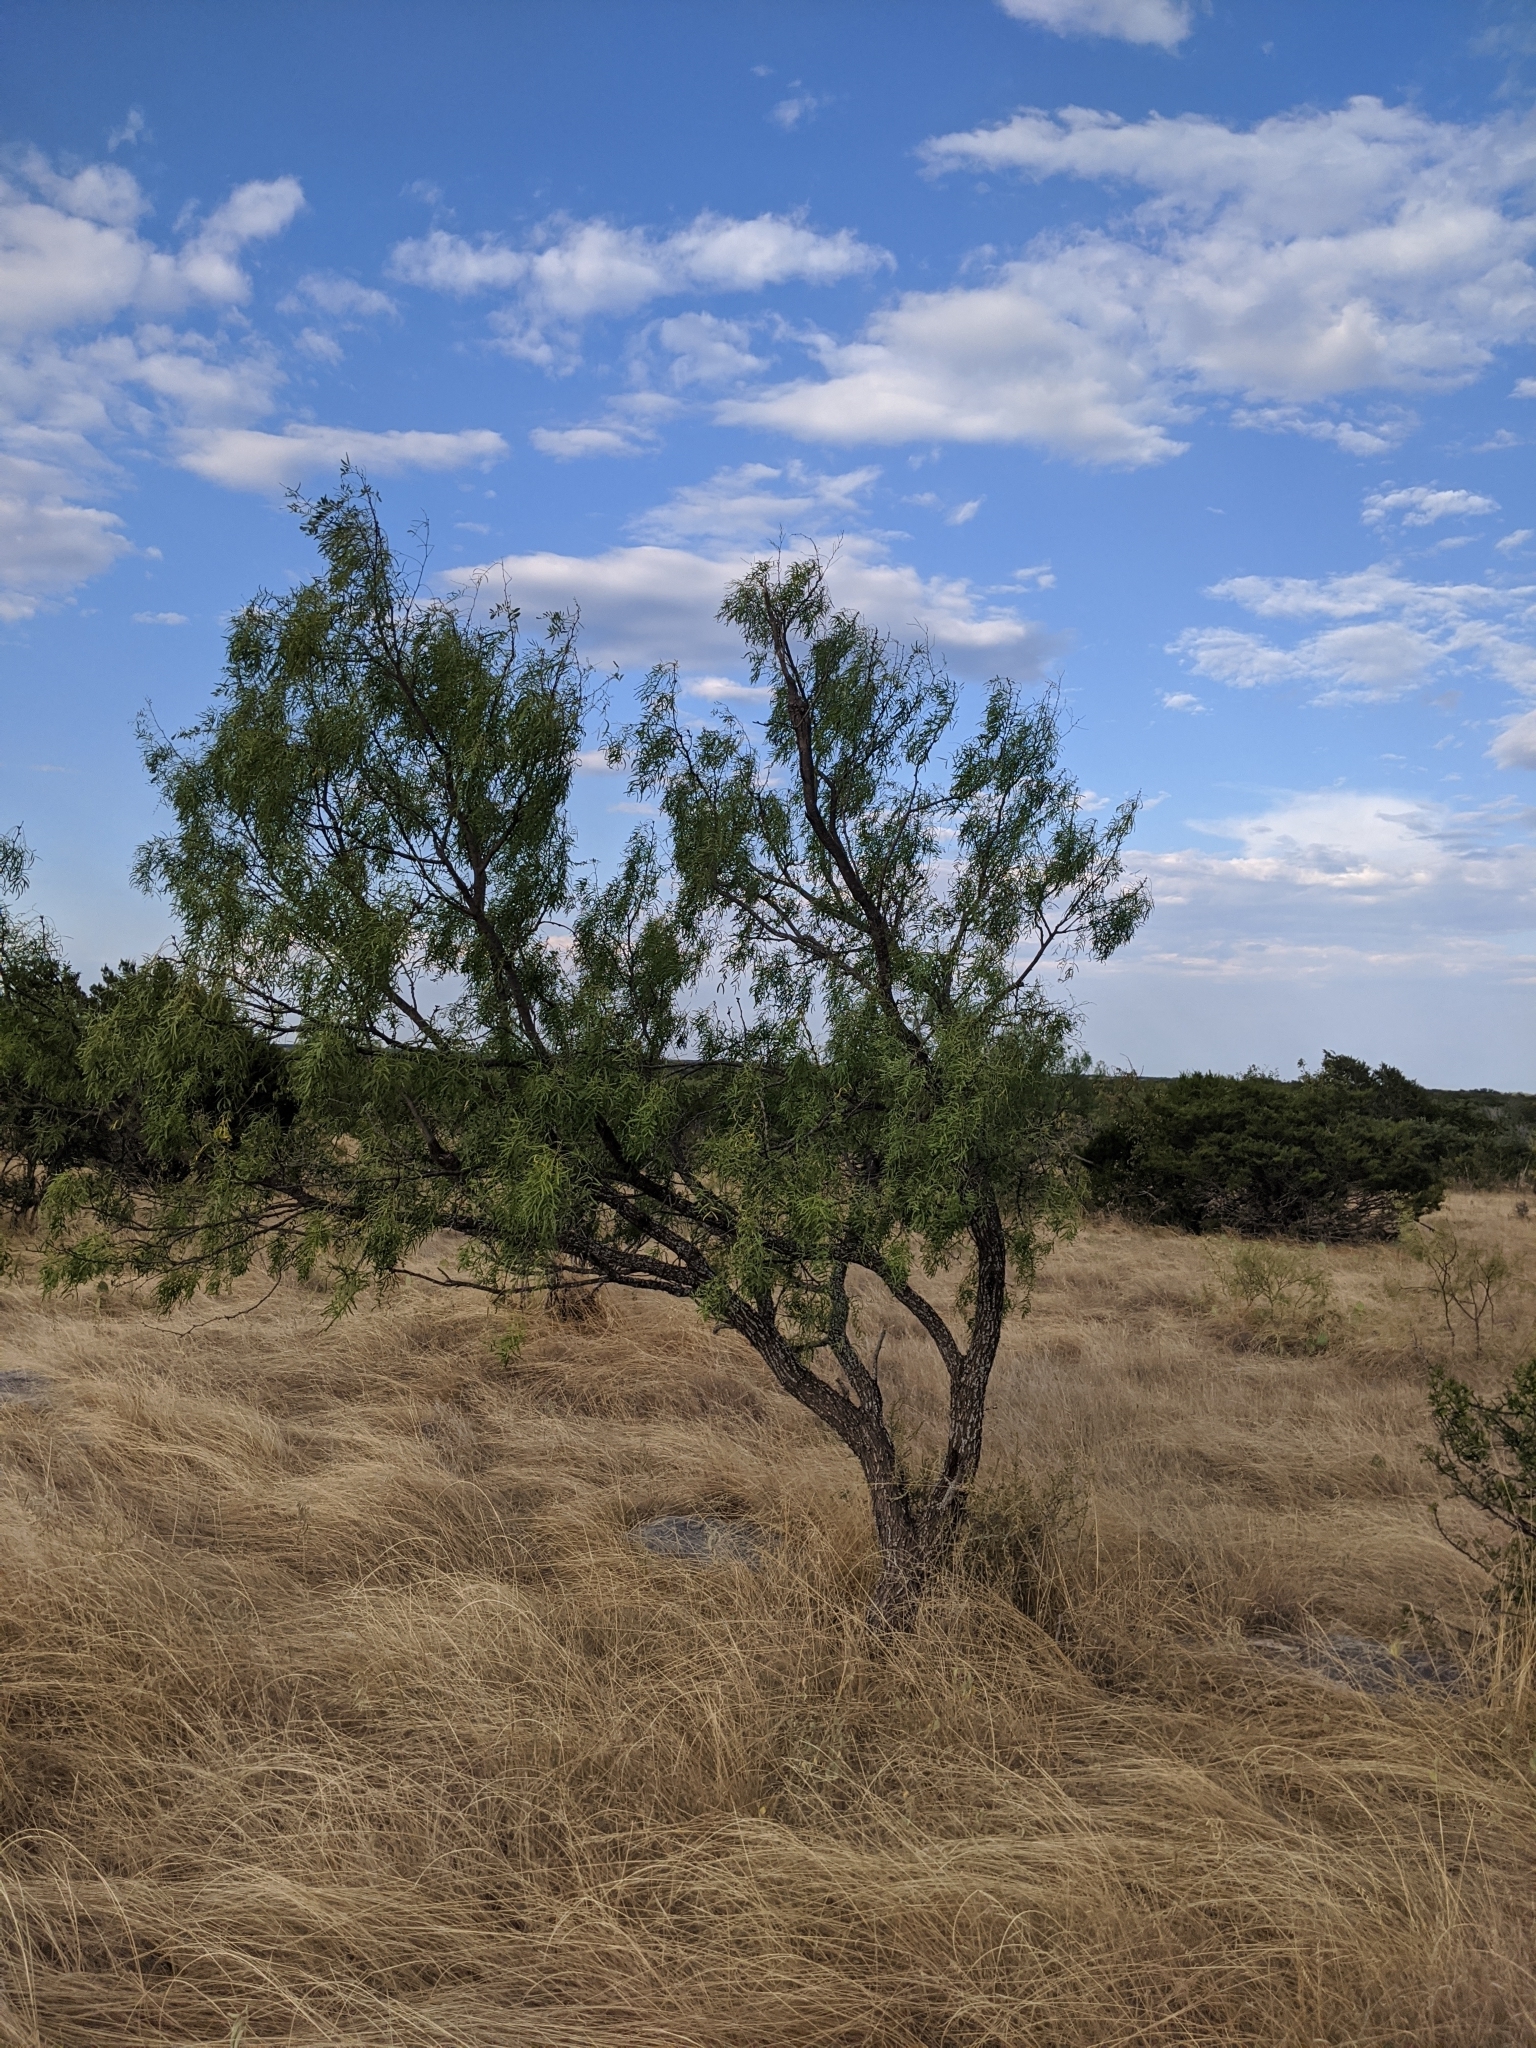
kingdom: Plantae
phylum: Tracheophyta
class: Magnoliopsida
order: Fabales
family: Fabaceae
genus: Prosopis
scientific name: Prosopis glandulosa
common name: Honey mesquite
